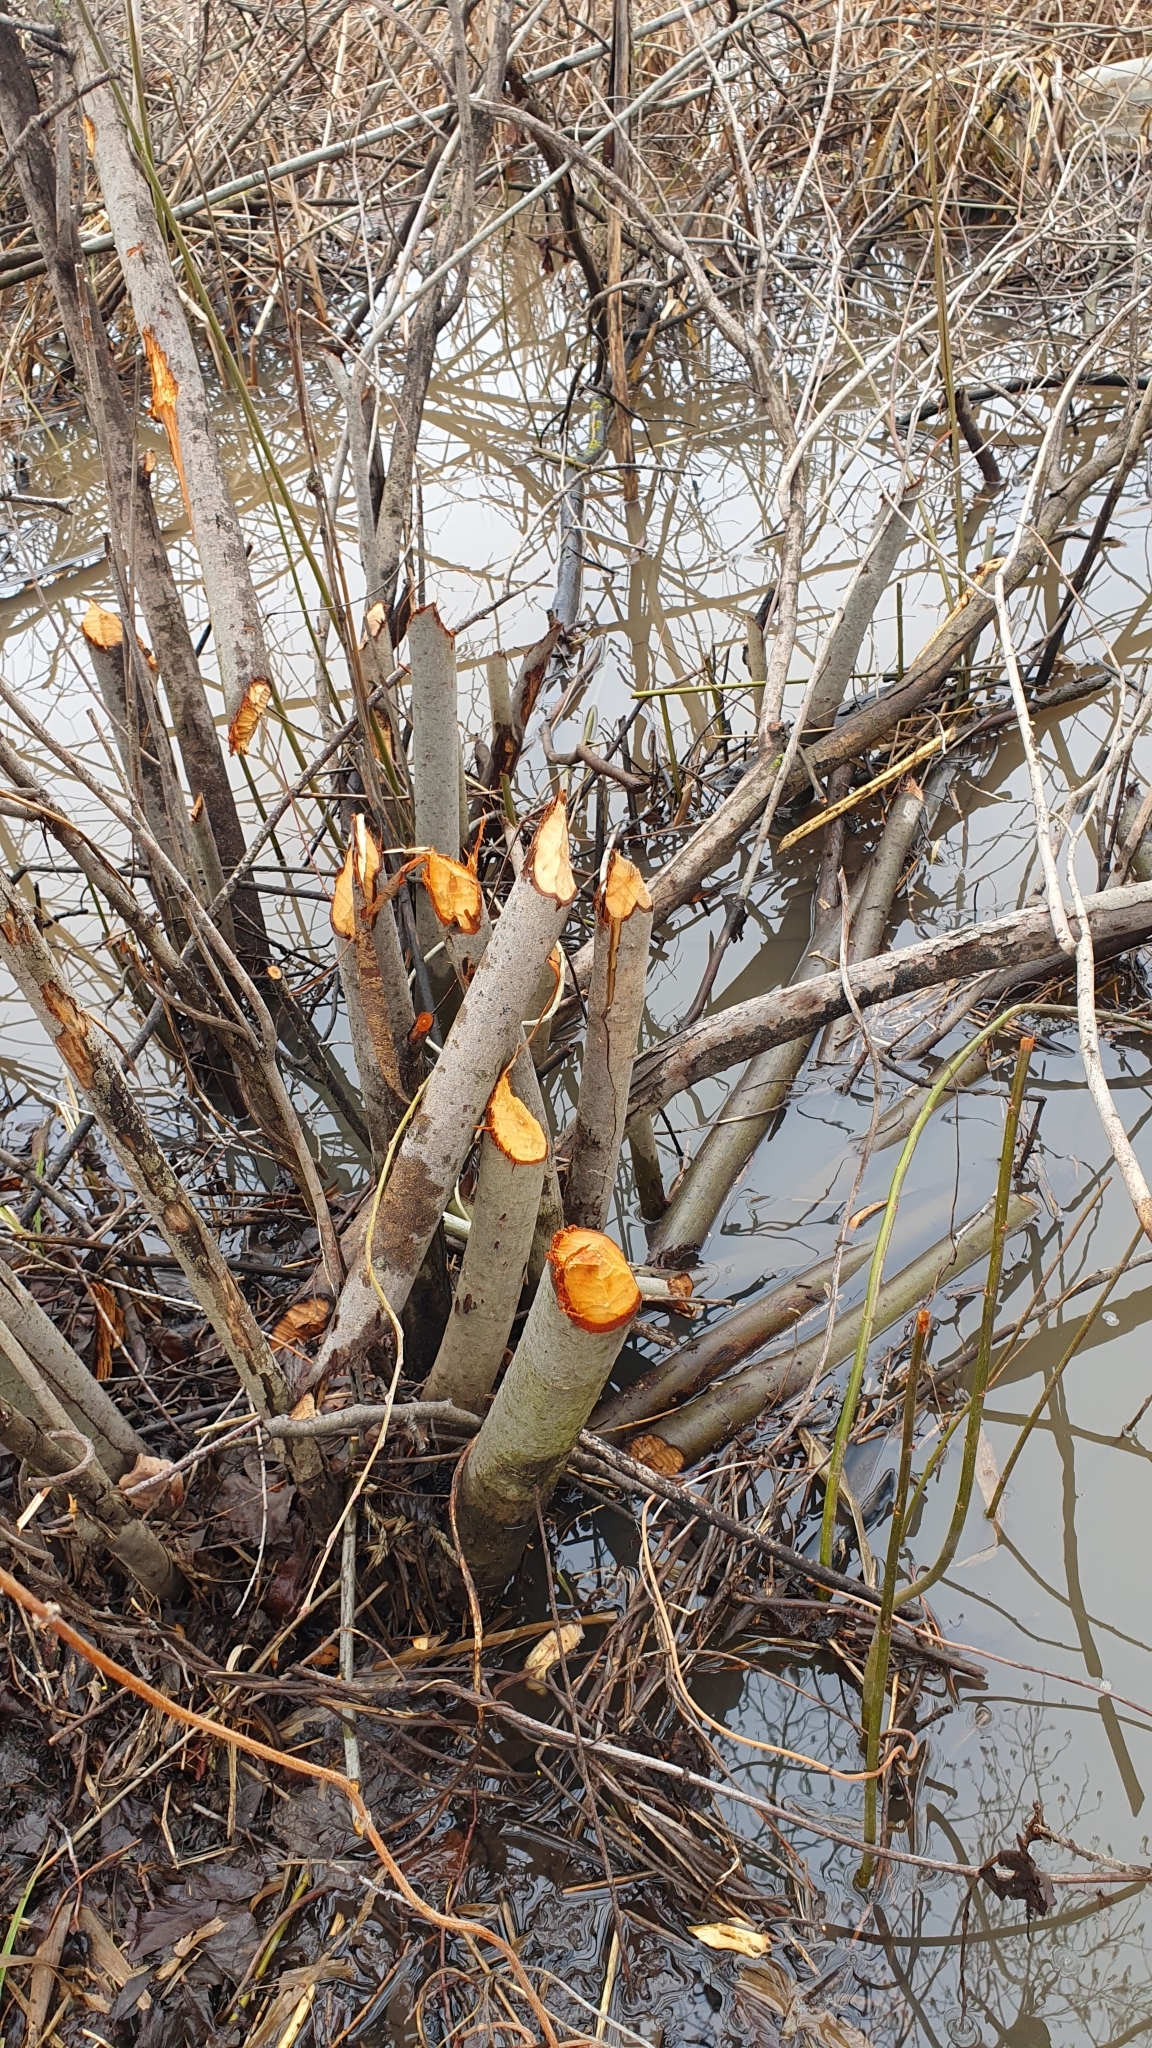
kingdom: Animalia
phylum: Chordata
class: Mammalia
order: Rodentia
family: Castoridae
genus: Castor
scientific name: Castor fiber
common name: Eurasian beaver
